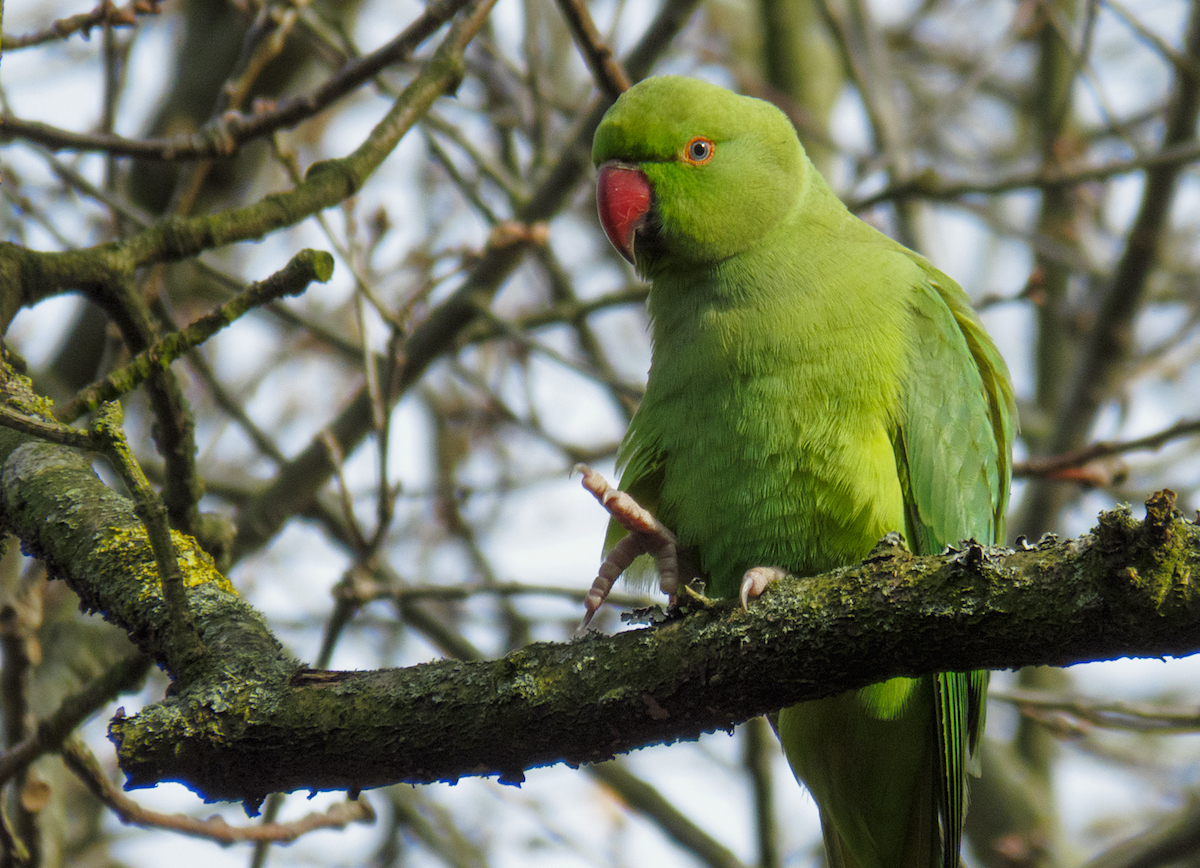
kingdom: Animalia
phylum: Chordata
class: Aves
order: Psittaciformes
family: Psittacidae
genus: Psittacula
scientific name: Psittacula krameri
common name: Rose-ringed parakeet
